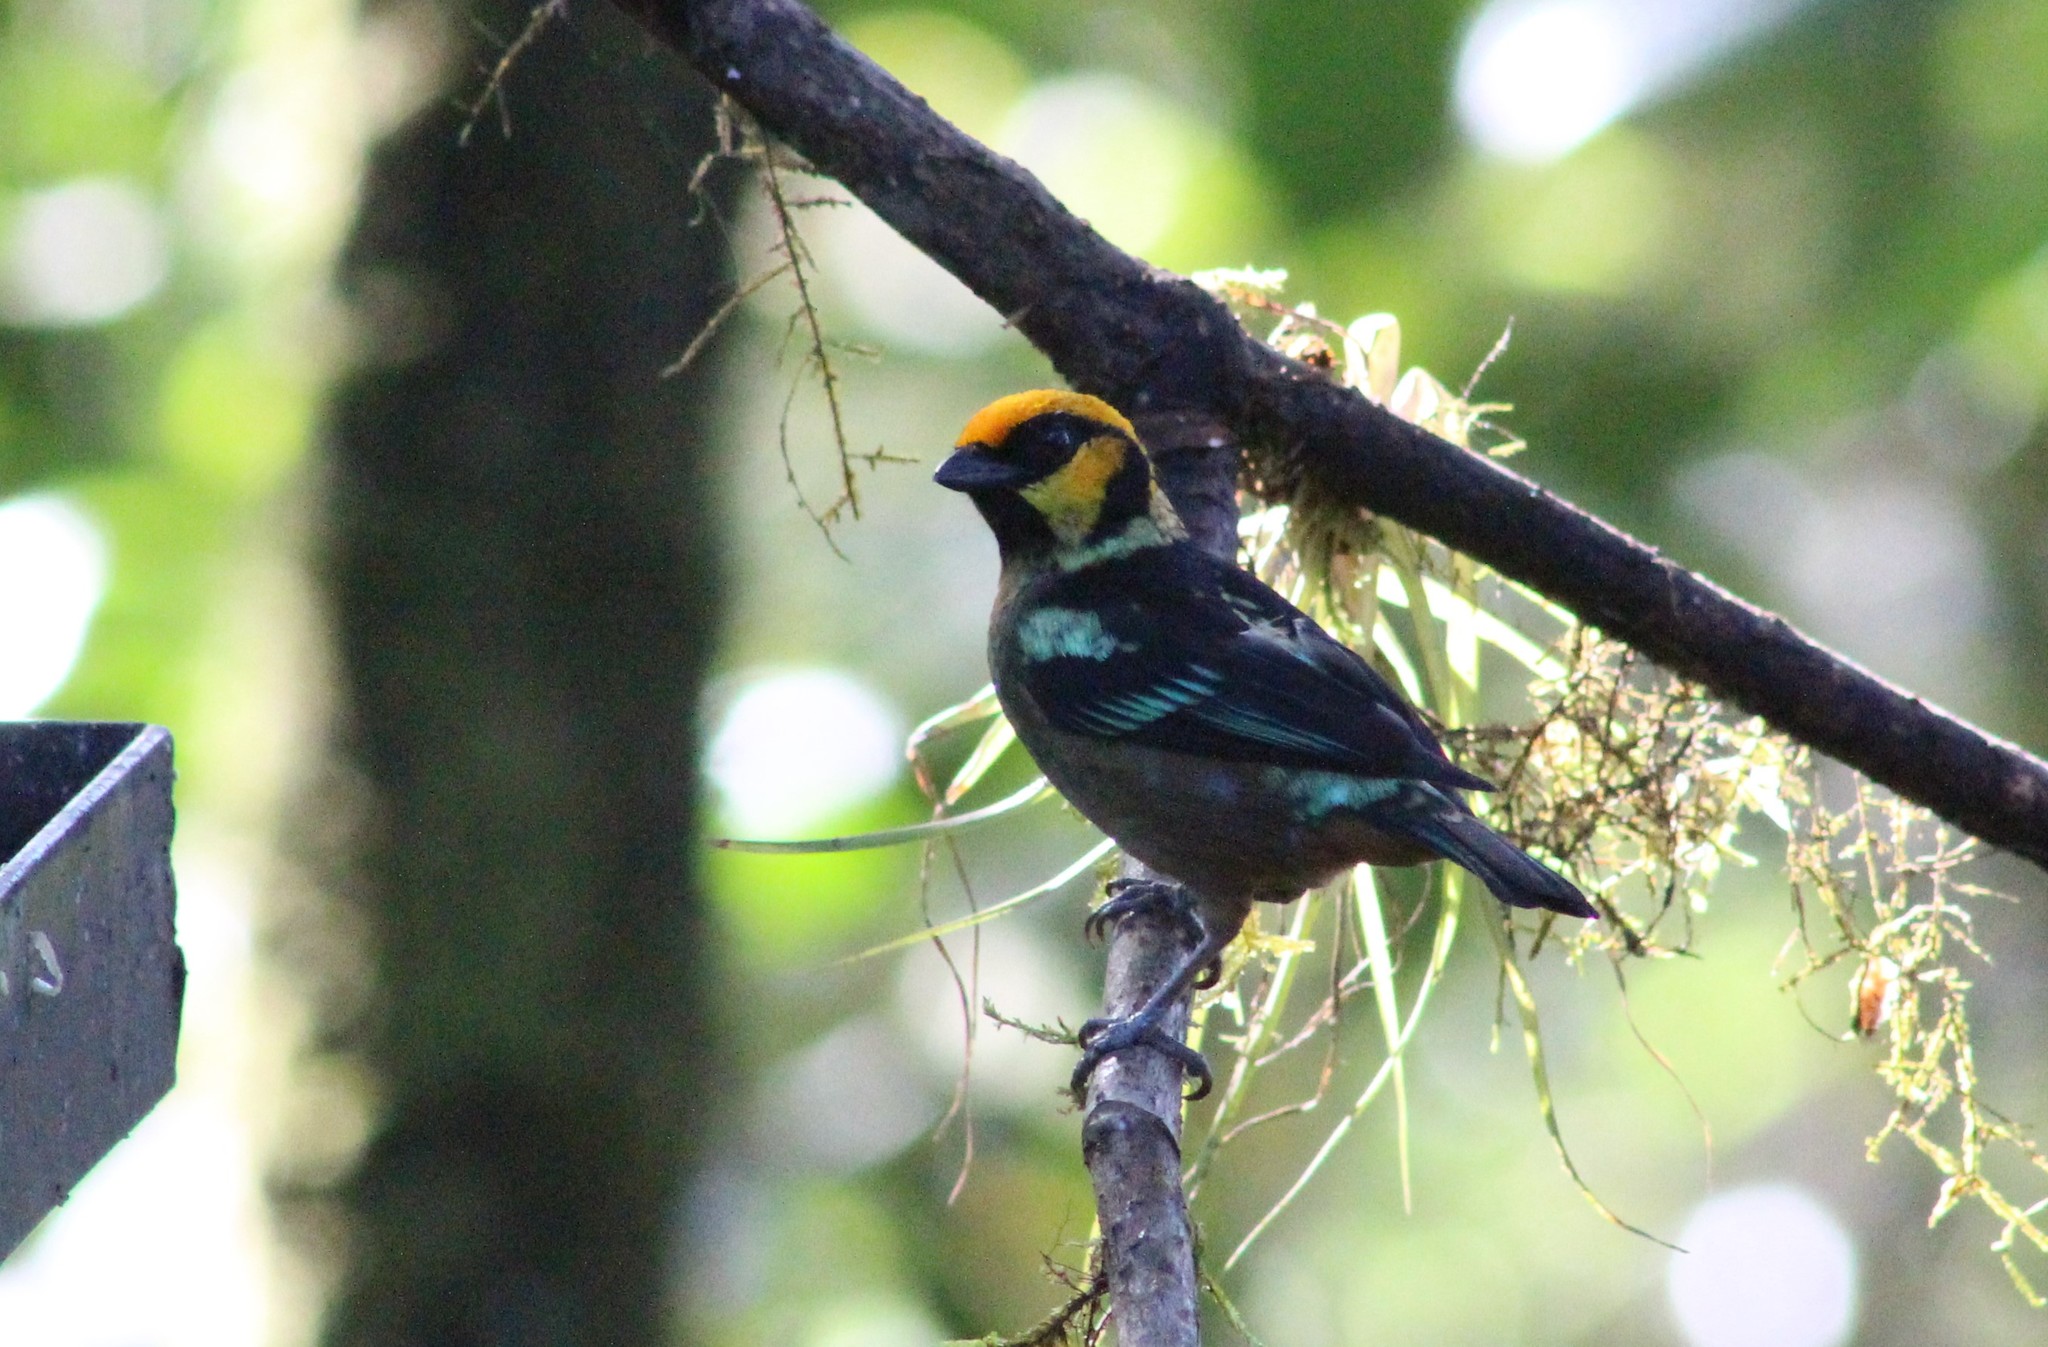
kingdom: Animalia
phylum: Chordata
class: Aves
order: Passeriformes
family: Thraupidae
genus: Tangara
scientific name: Tangara parzudakii
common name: Flame-faced tanager
